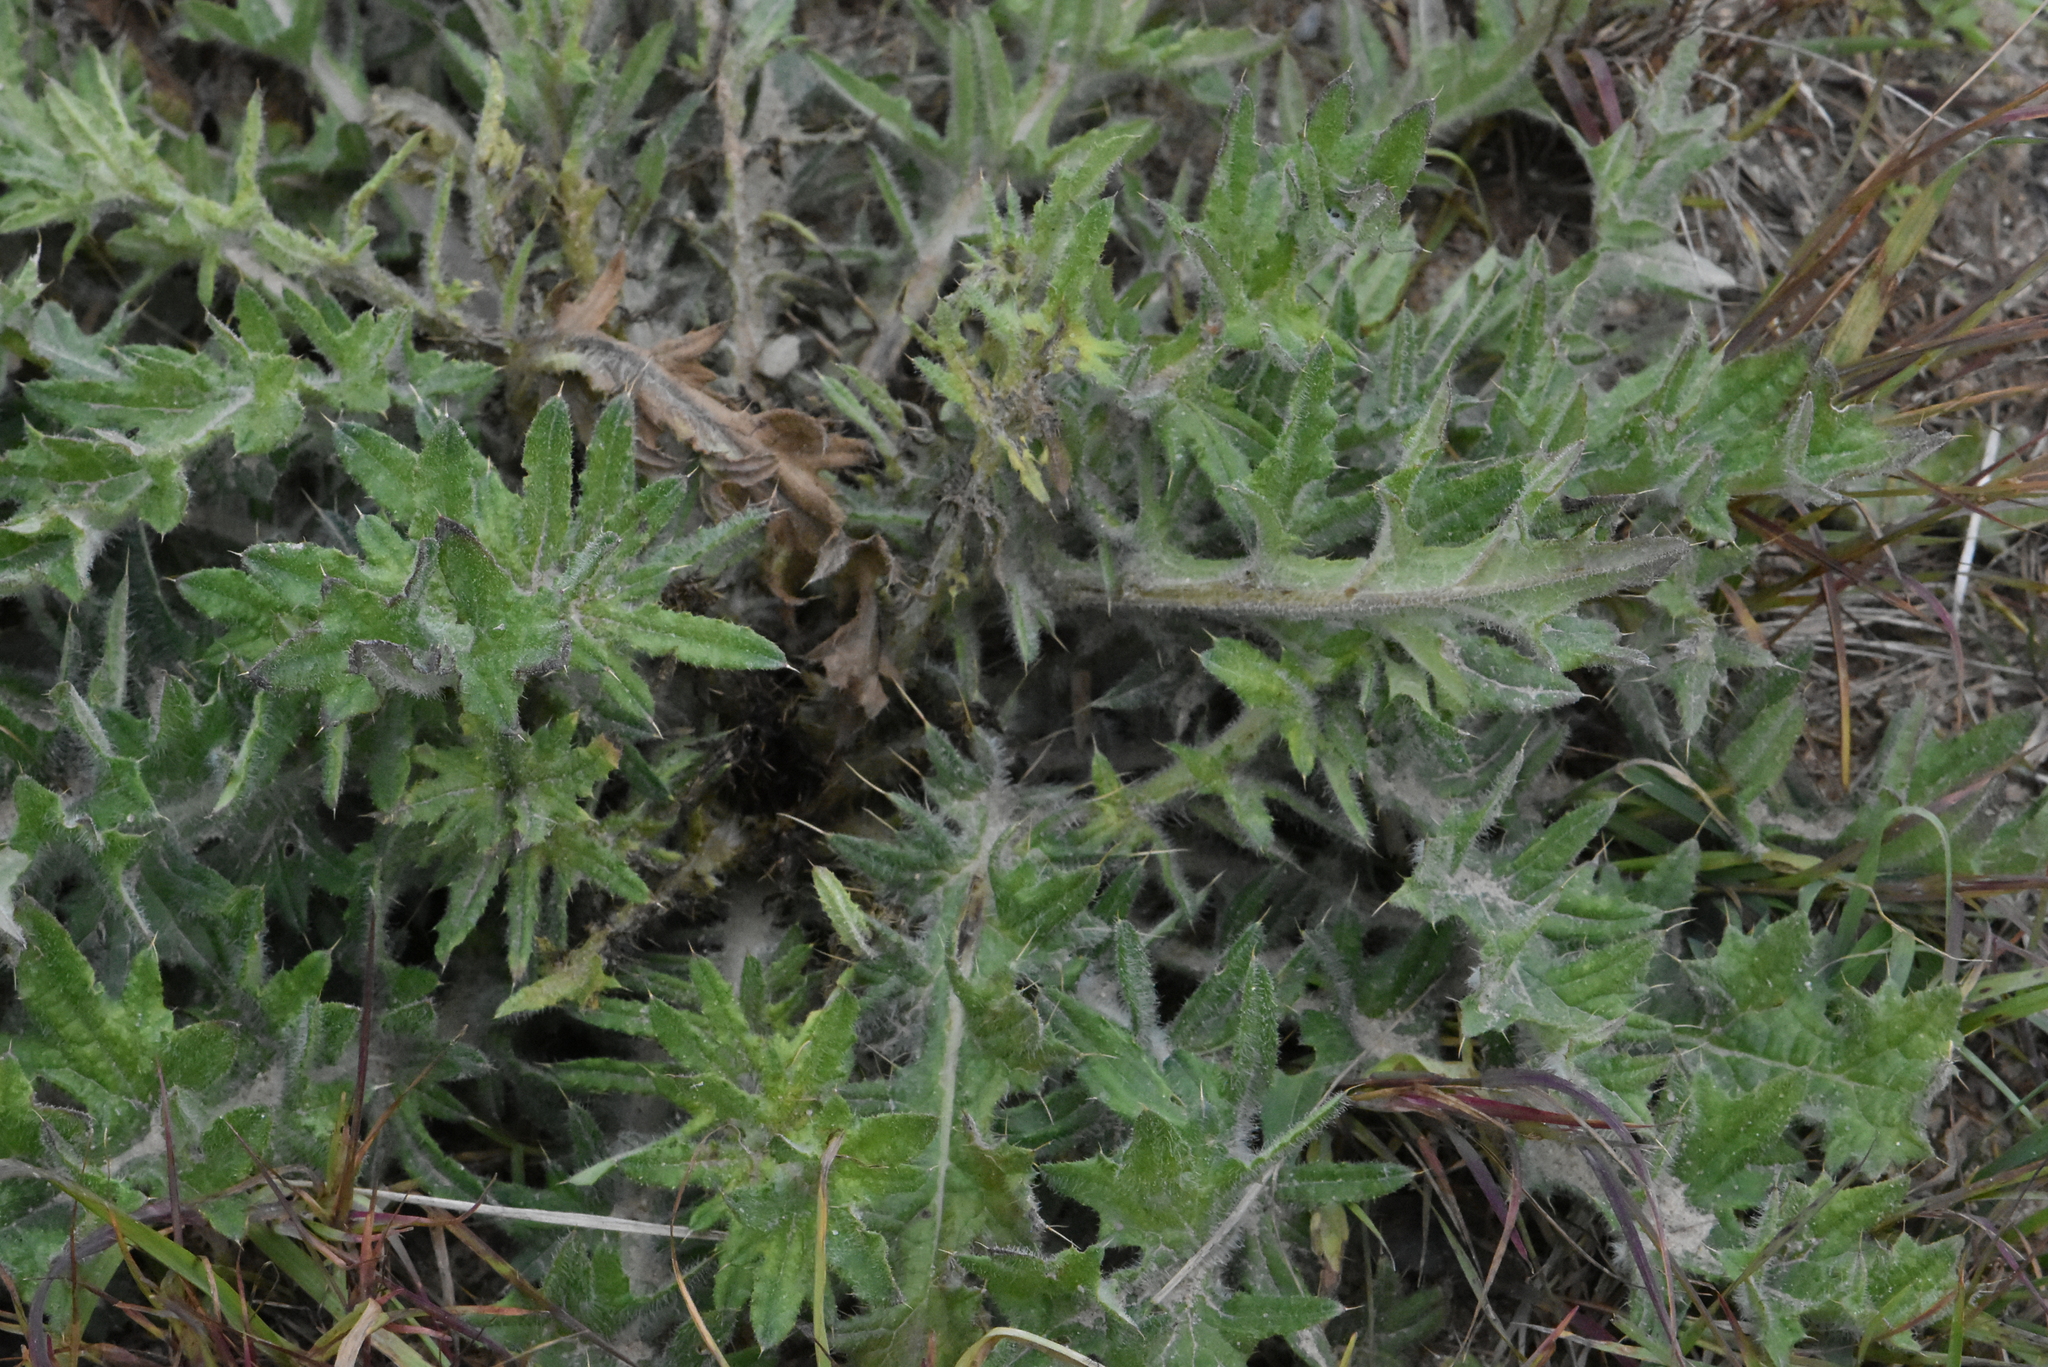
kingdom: Plantae
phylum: Tracheophyta
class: Magnoliopsida
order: Asterales
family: Asteraceae
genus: Cirsium
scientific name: Cirsium vulgare
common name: Bull thistle
